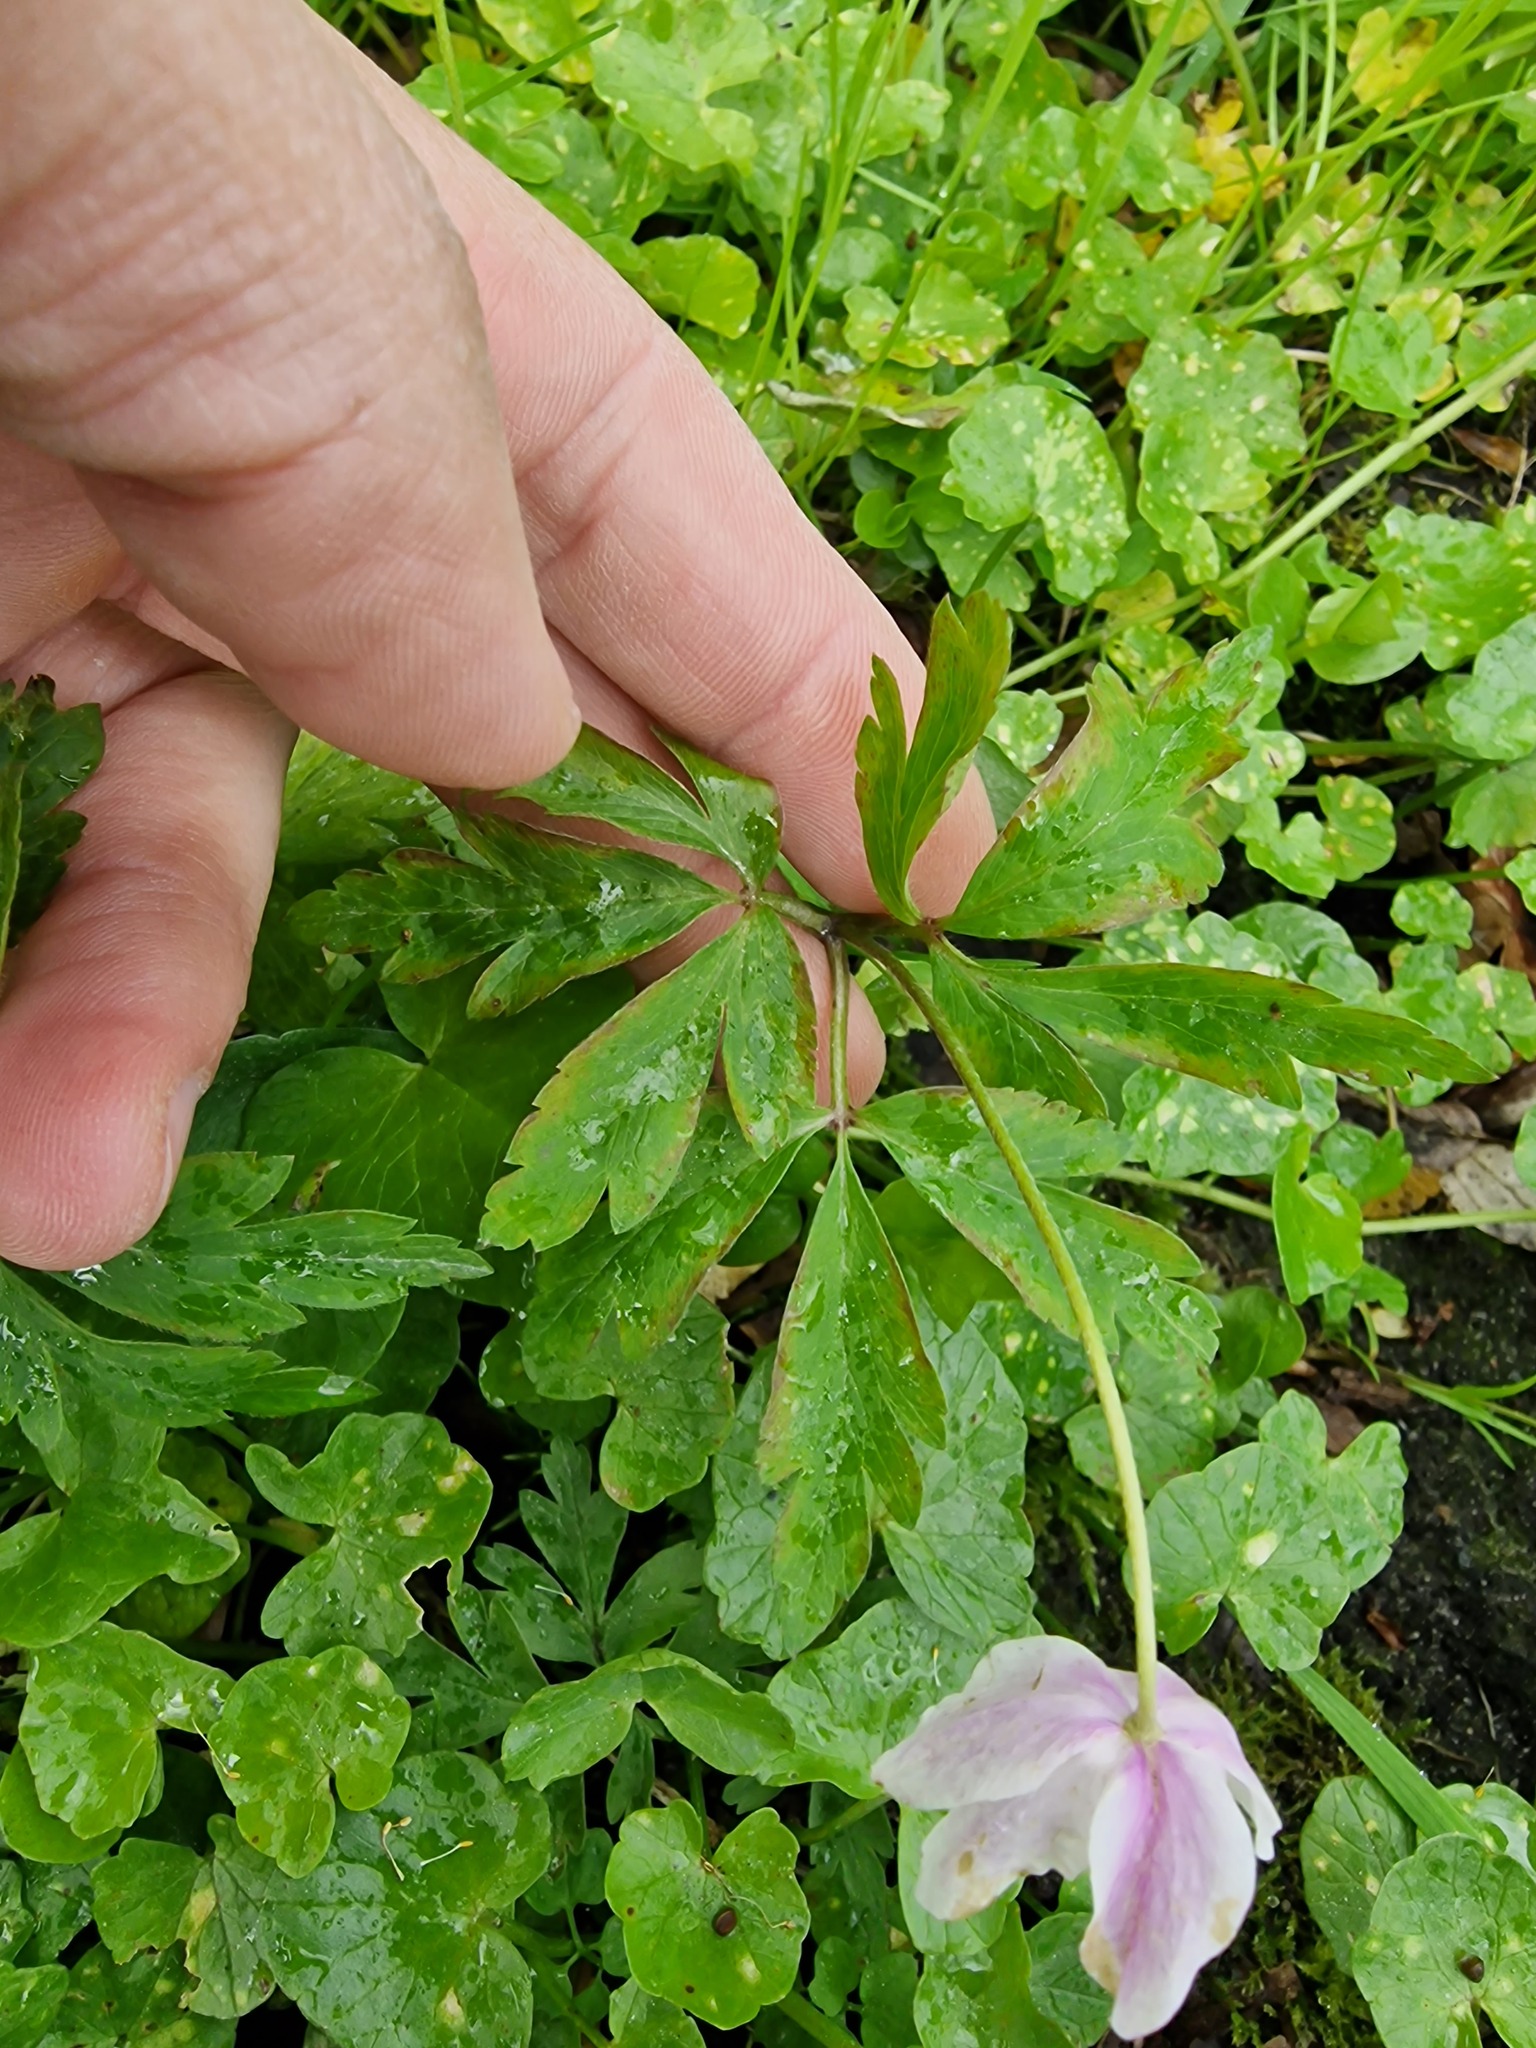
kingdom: Plantae
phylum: Tracheophyta
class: Magnoliopsida
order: Ranunculales
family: Ranunculaceae
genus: Anemone
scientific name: Anemone nemorosa
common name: Wood anemone
